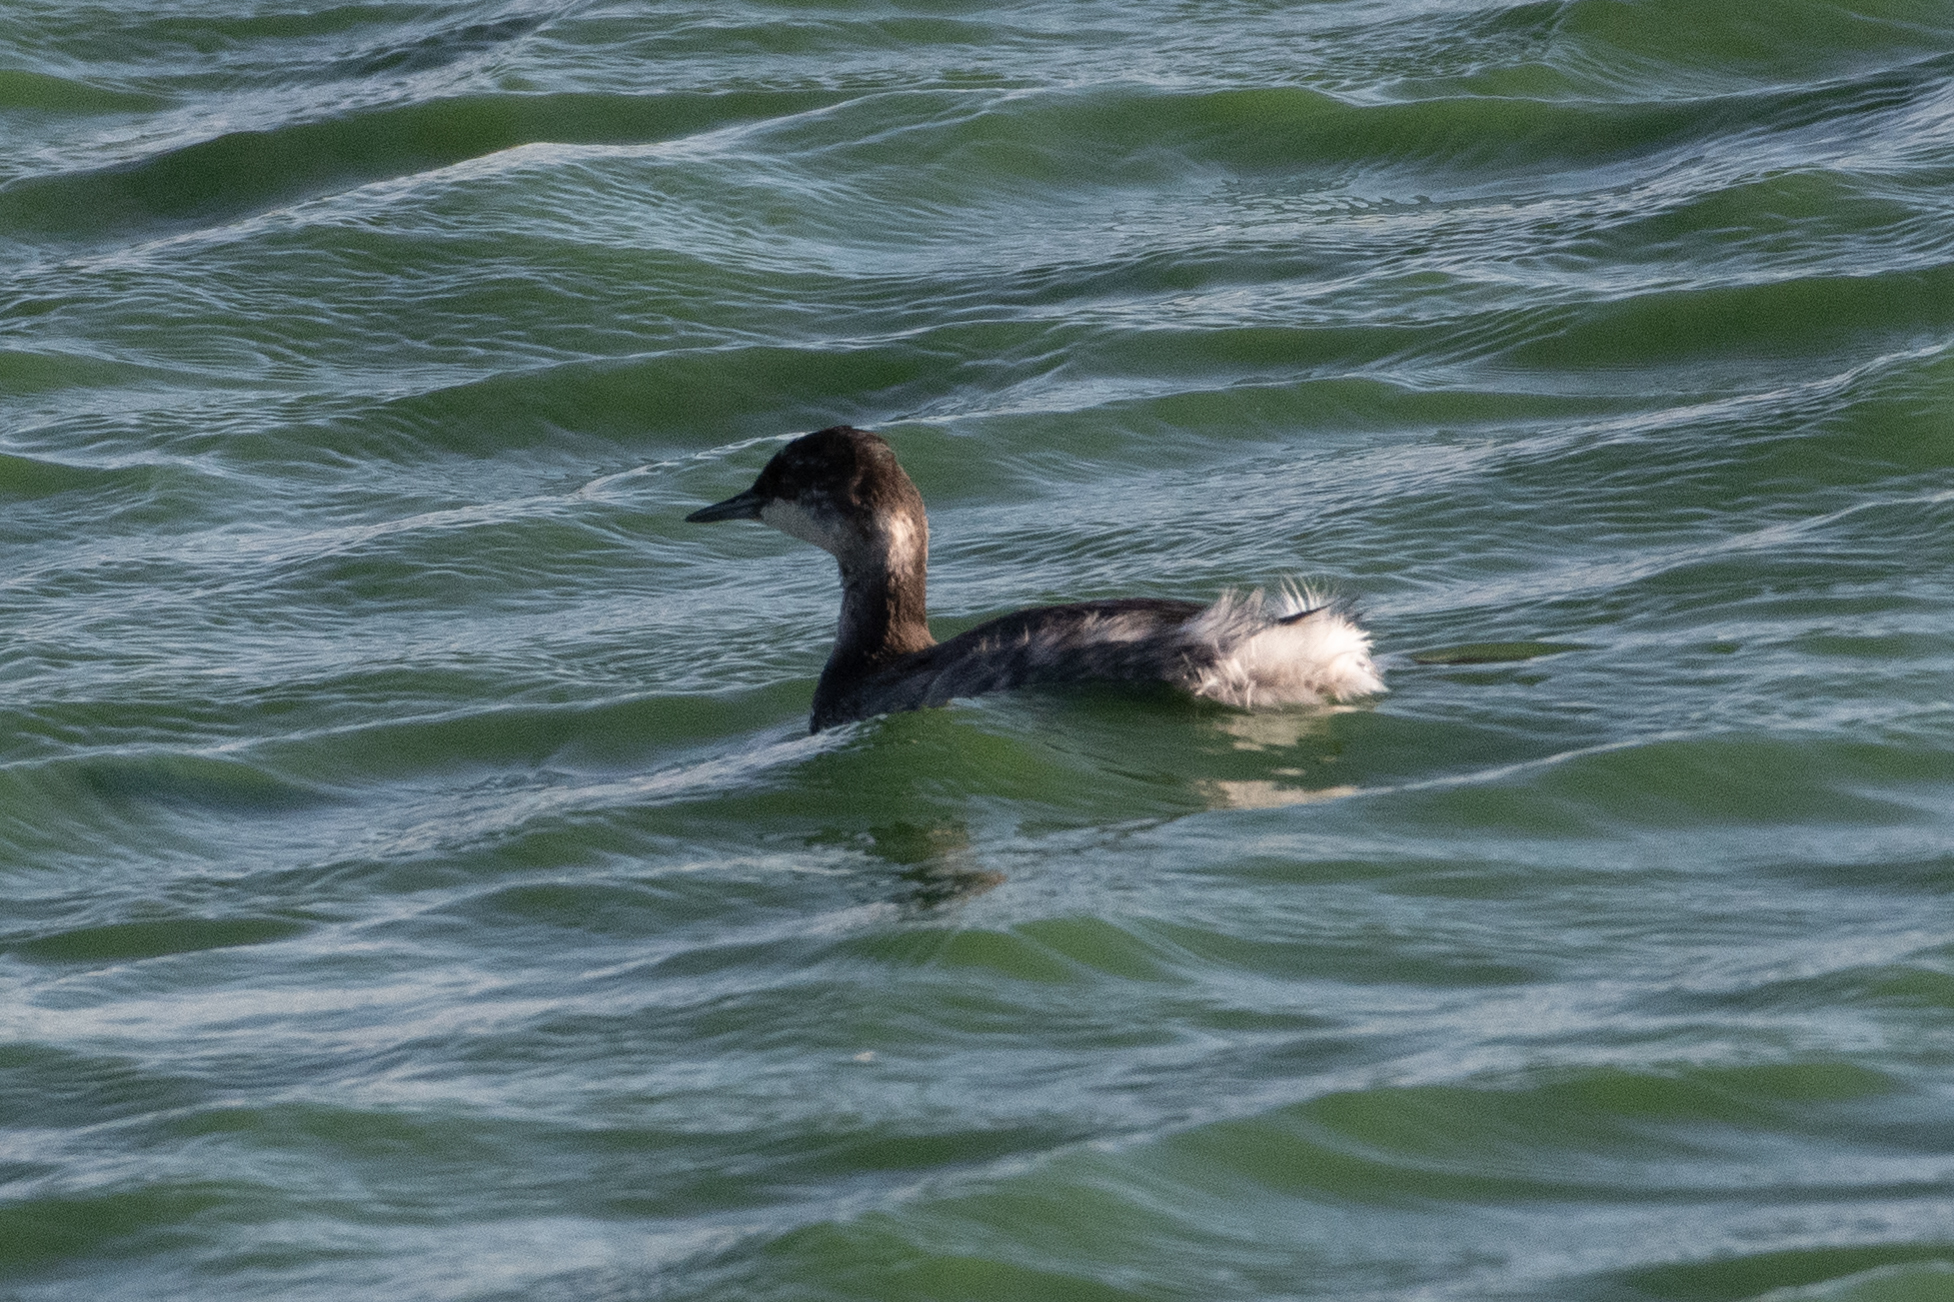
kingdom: Animalia
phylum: Chordata
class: Aves
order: Podicipediformes
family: Podicipedidae
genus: Podiceps
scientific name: Podiceps nigricollis
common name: Black-necked grebe
